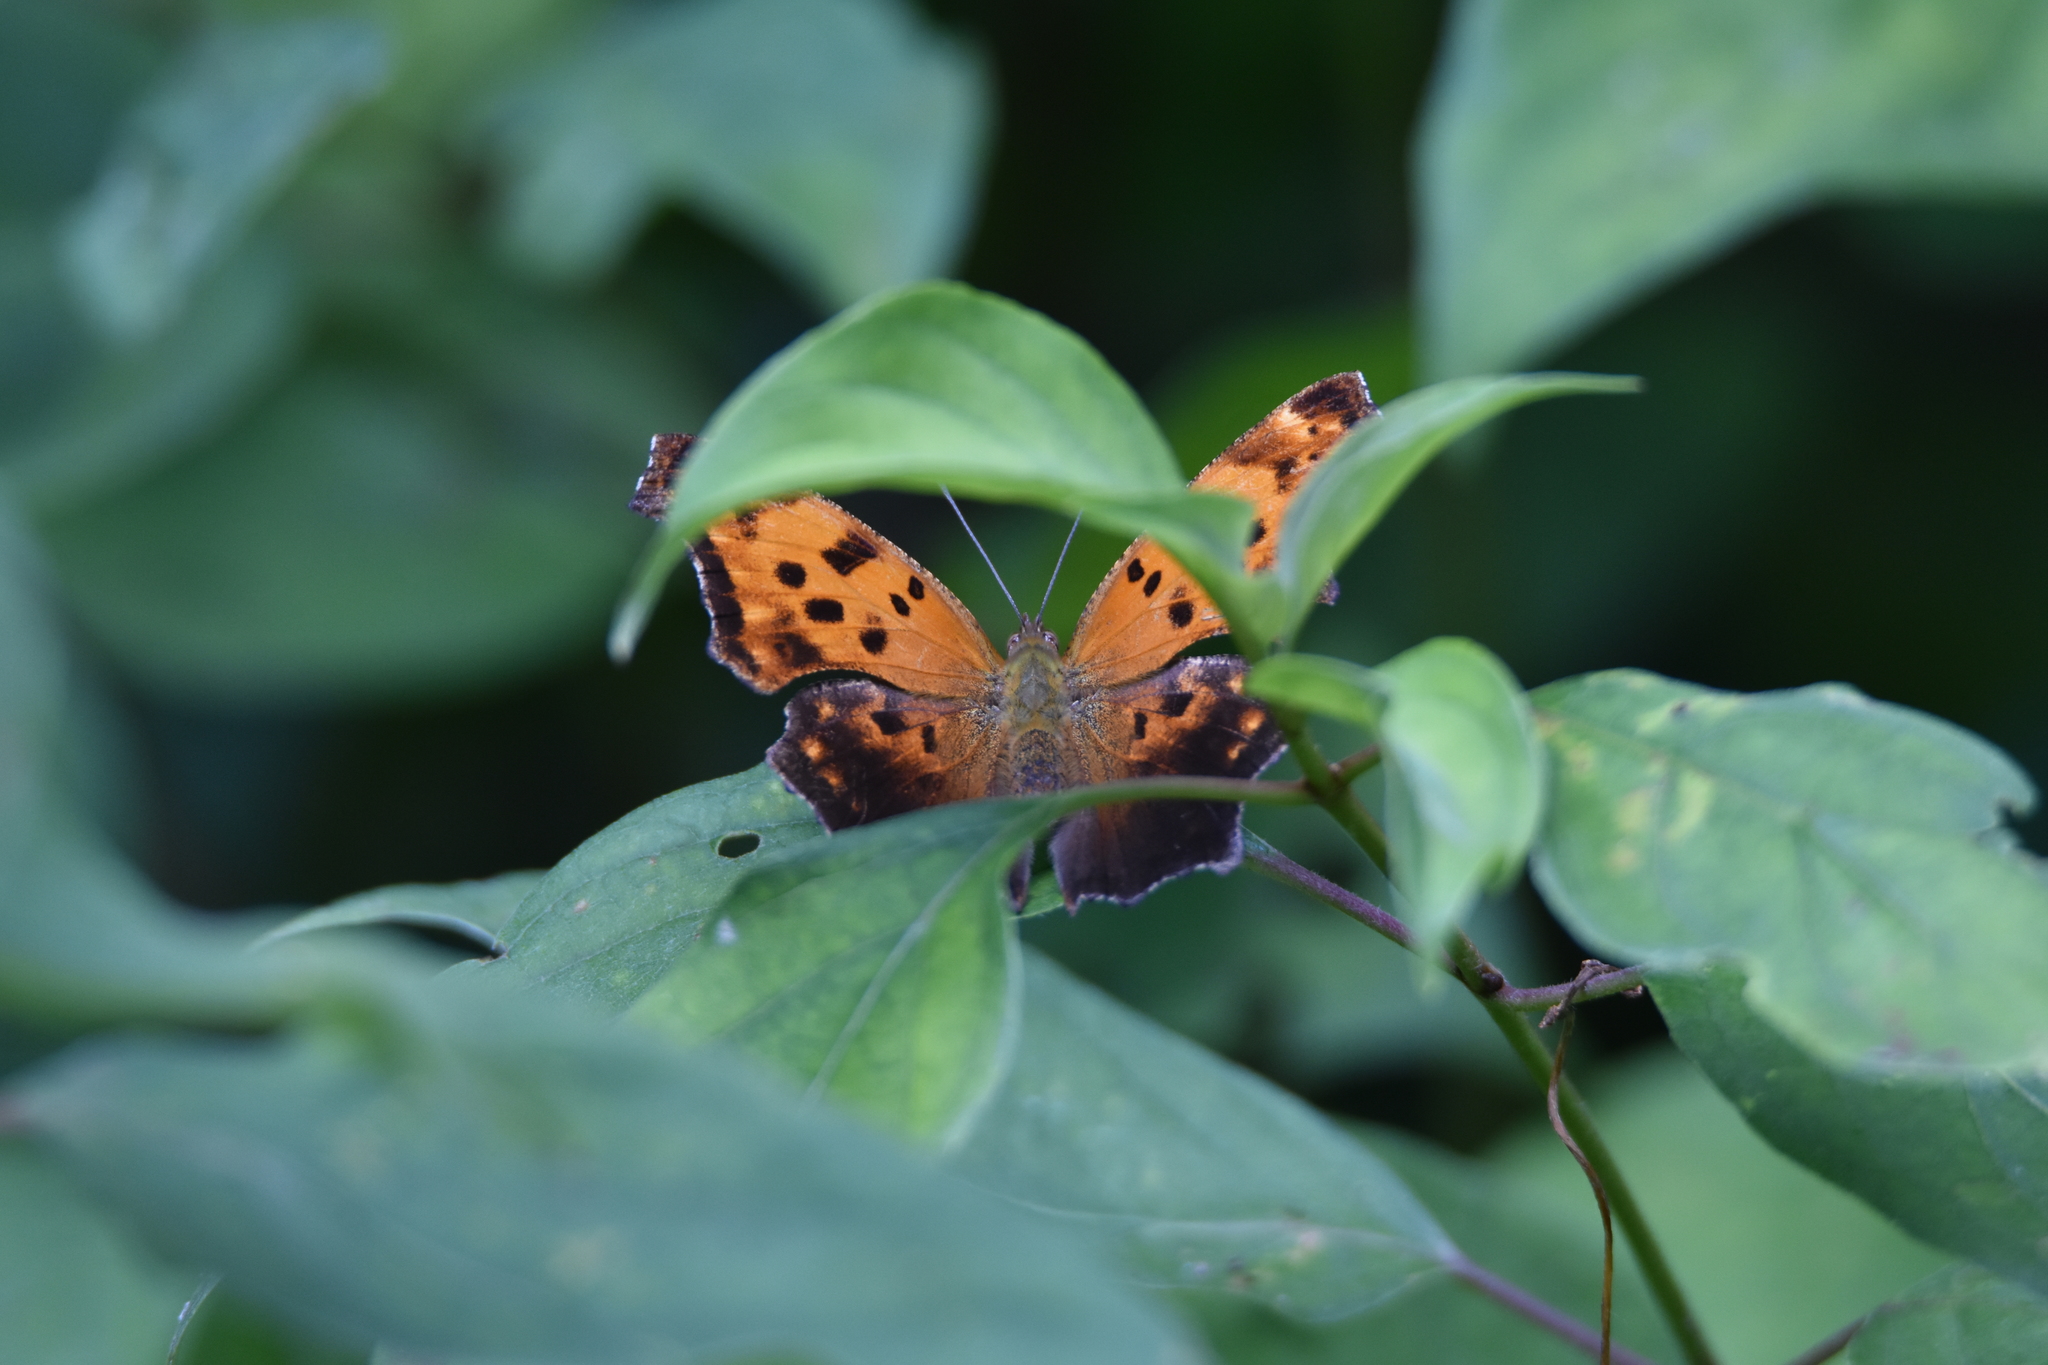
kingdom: Animalia
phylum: Arthropoda
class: Insecta
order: Lepidoptera
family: Nymphalidae
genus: Polygonia
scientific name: Polygonia comma
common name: Eastern comma
